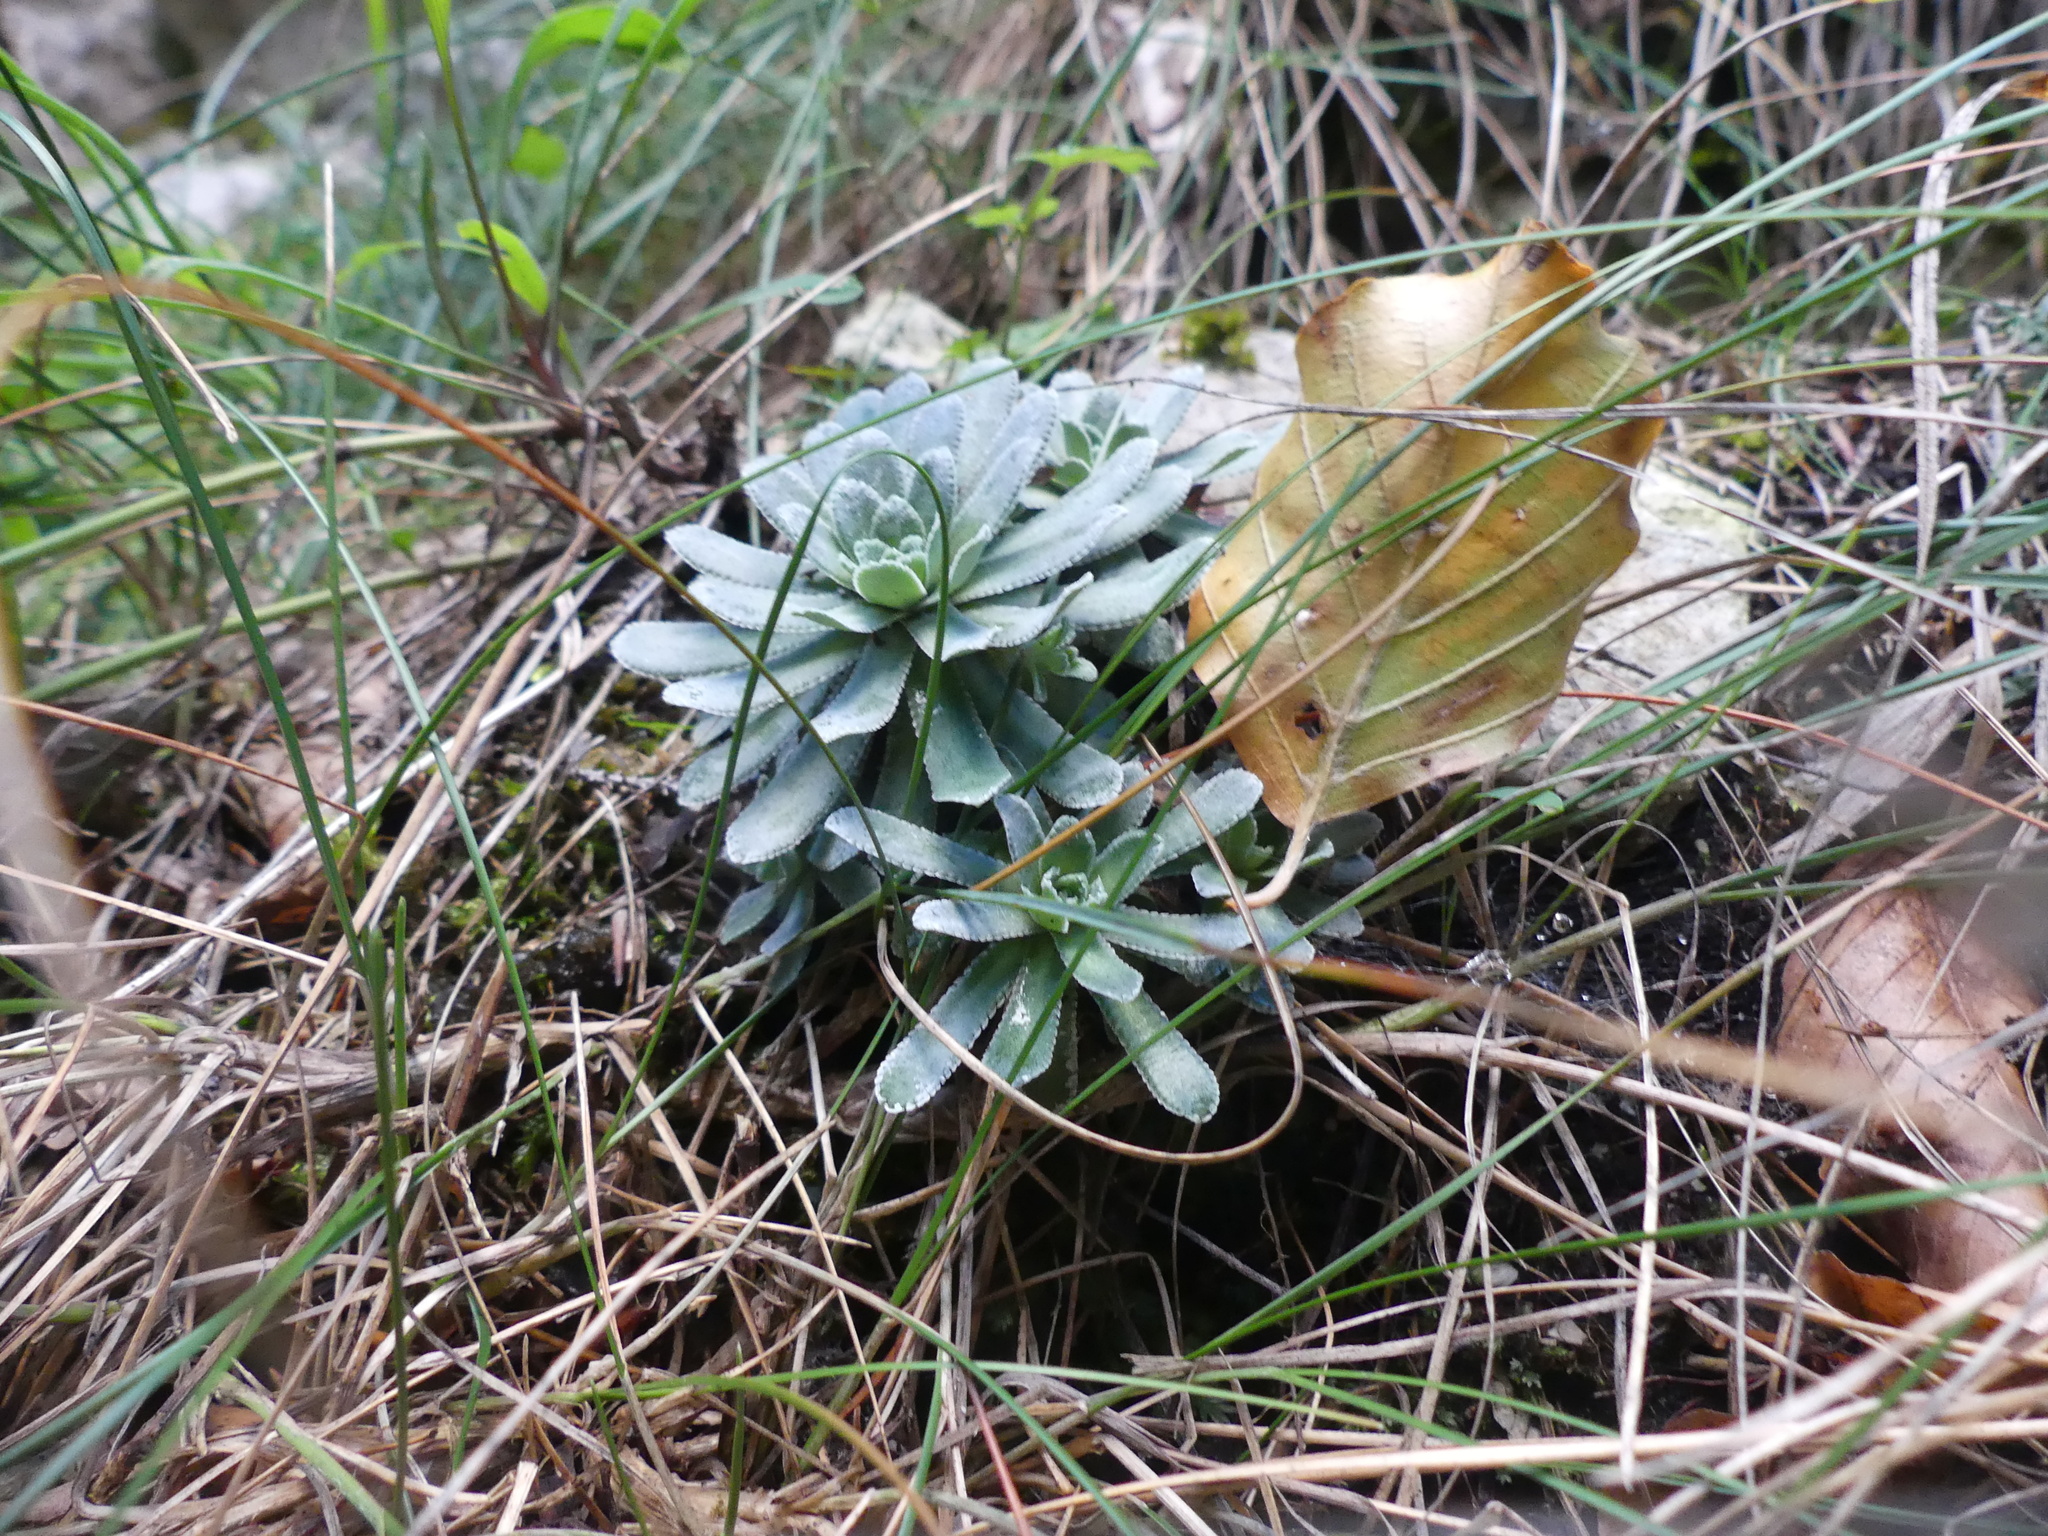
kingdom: Plantae
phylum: Tracheophyta
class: Magnoliopsida
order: Saxifragales
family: Saxifragaceae
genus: Saxifraga
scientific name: Saxifraga paniculata
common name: Livelong saxifrage
